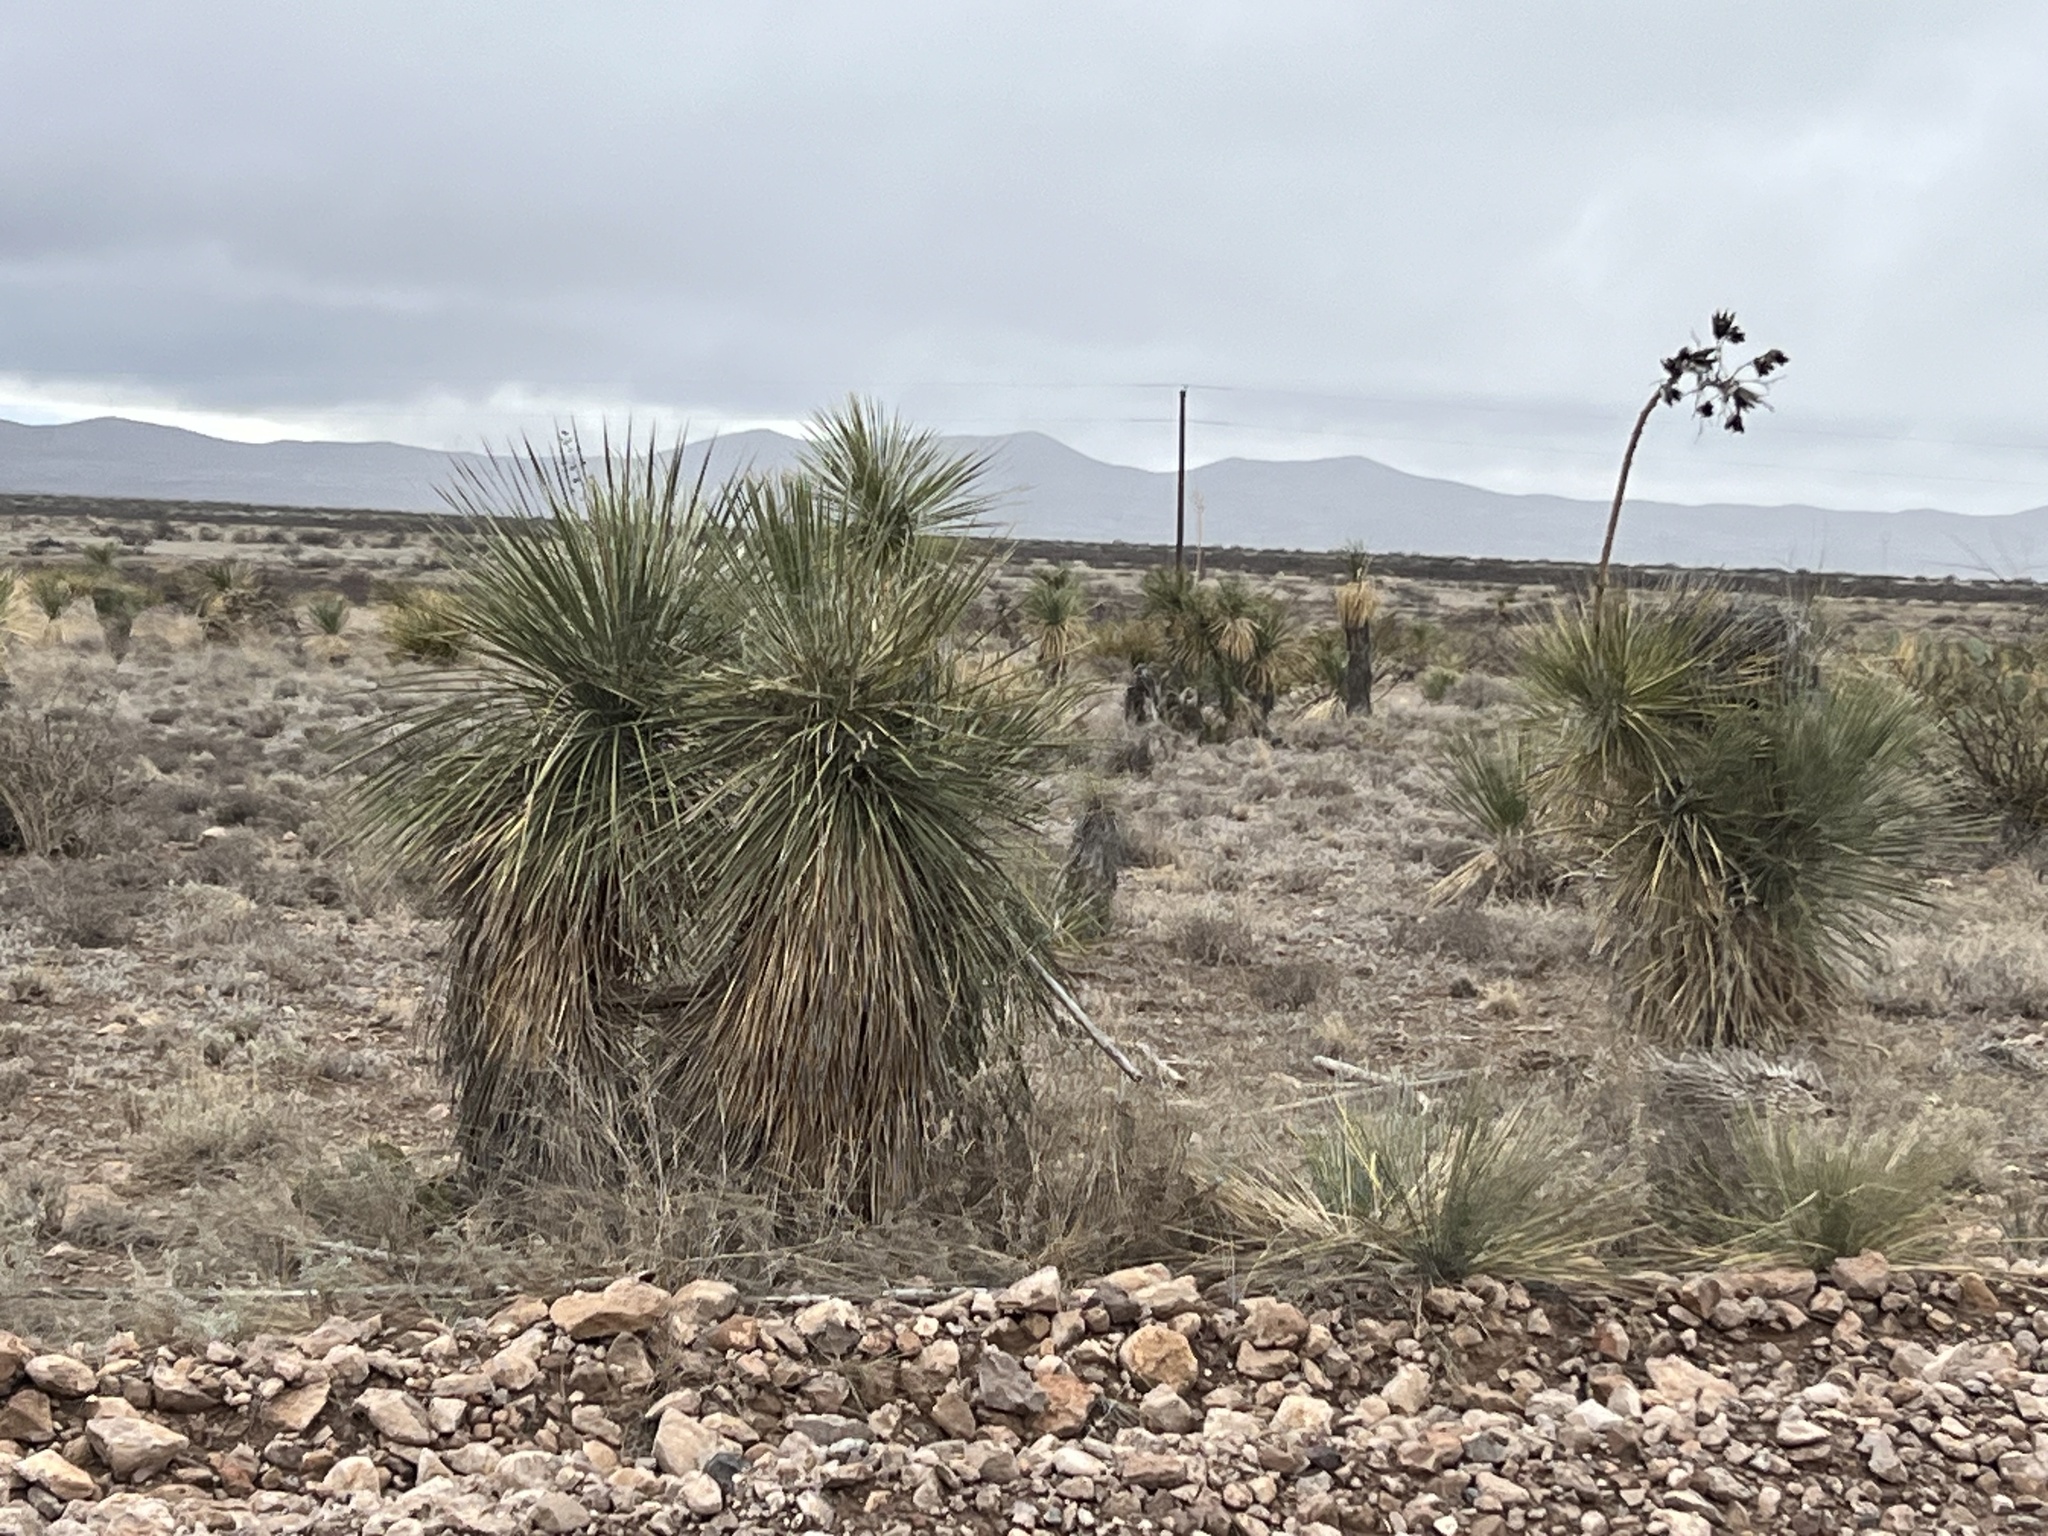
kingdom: Plantae
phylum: Tracheophyta
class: Liliopsida
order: Asparagales
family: Asparagaceae
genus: Yucca
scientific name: Yucca elata
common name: Palmella
